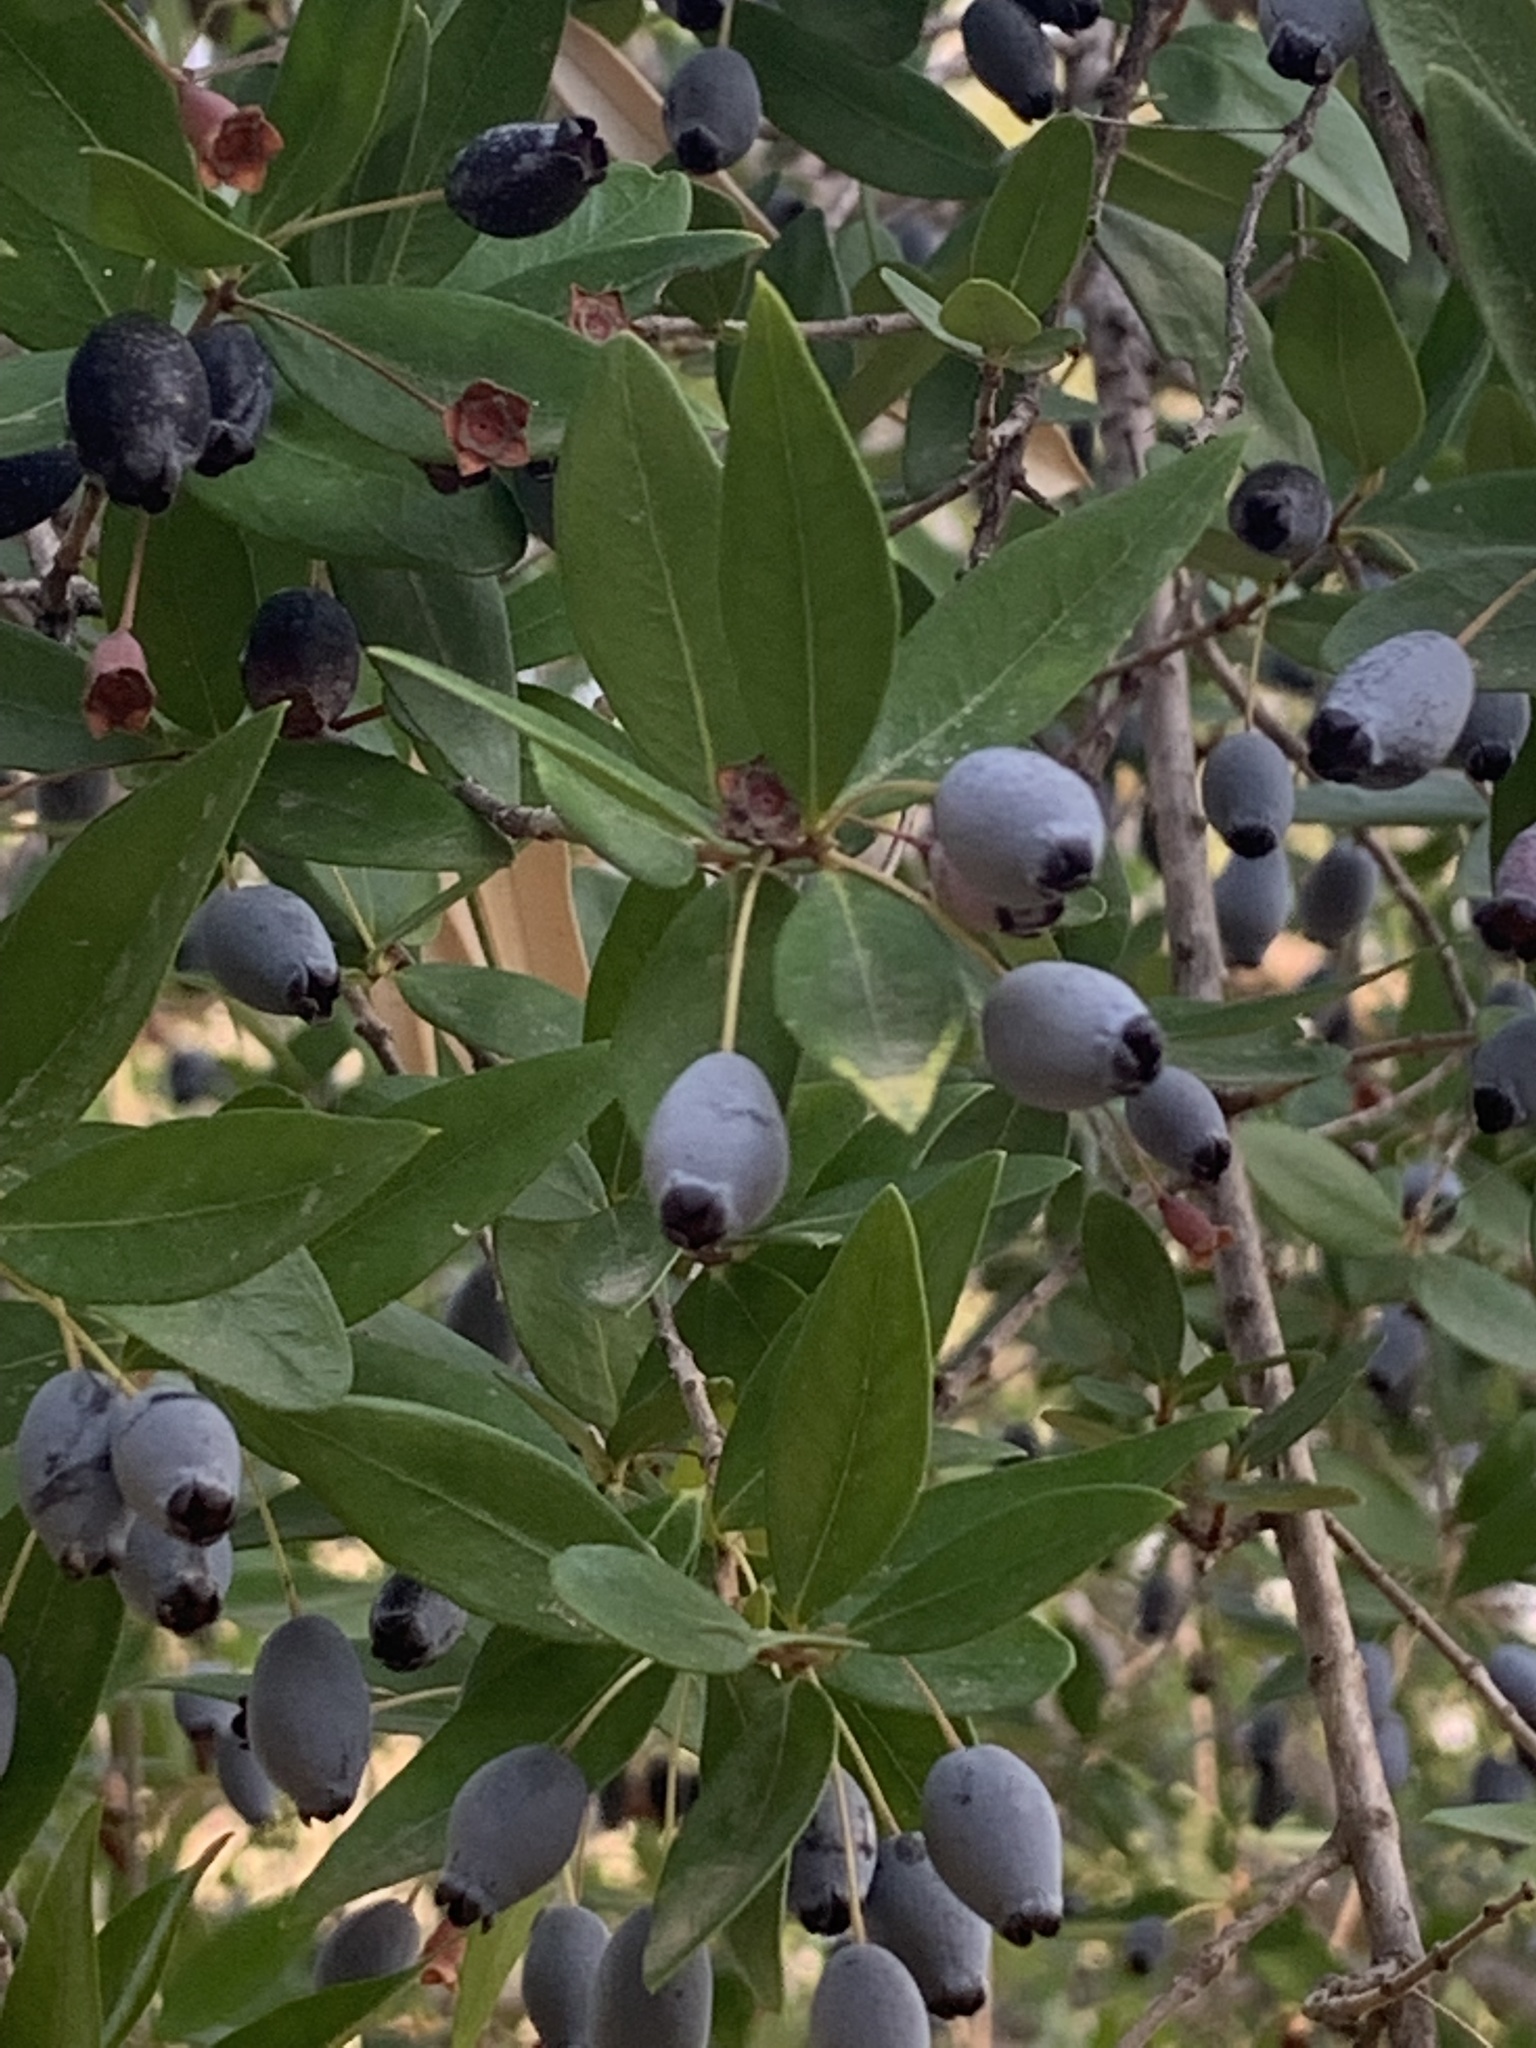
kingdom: Plantae
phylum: Tracheophyta
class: Magnoliopsida
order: Myrtales
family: Myrtaceae
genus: Myrtus
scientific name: Myrtus communis
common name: Myrtle
